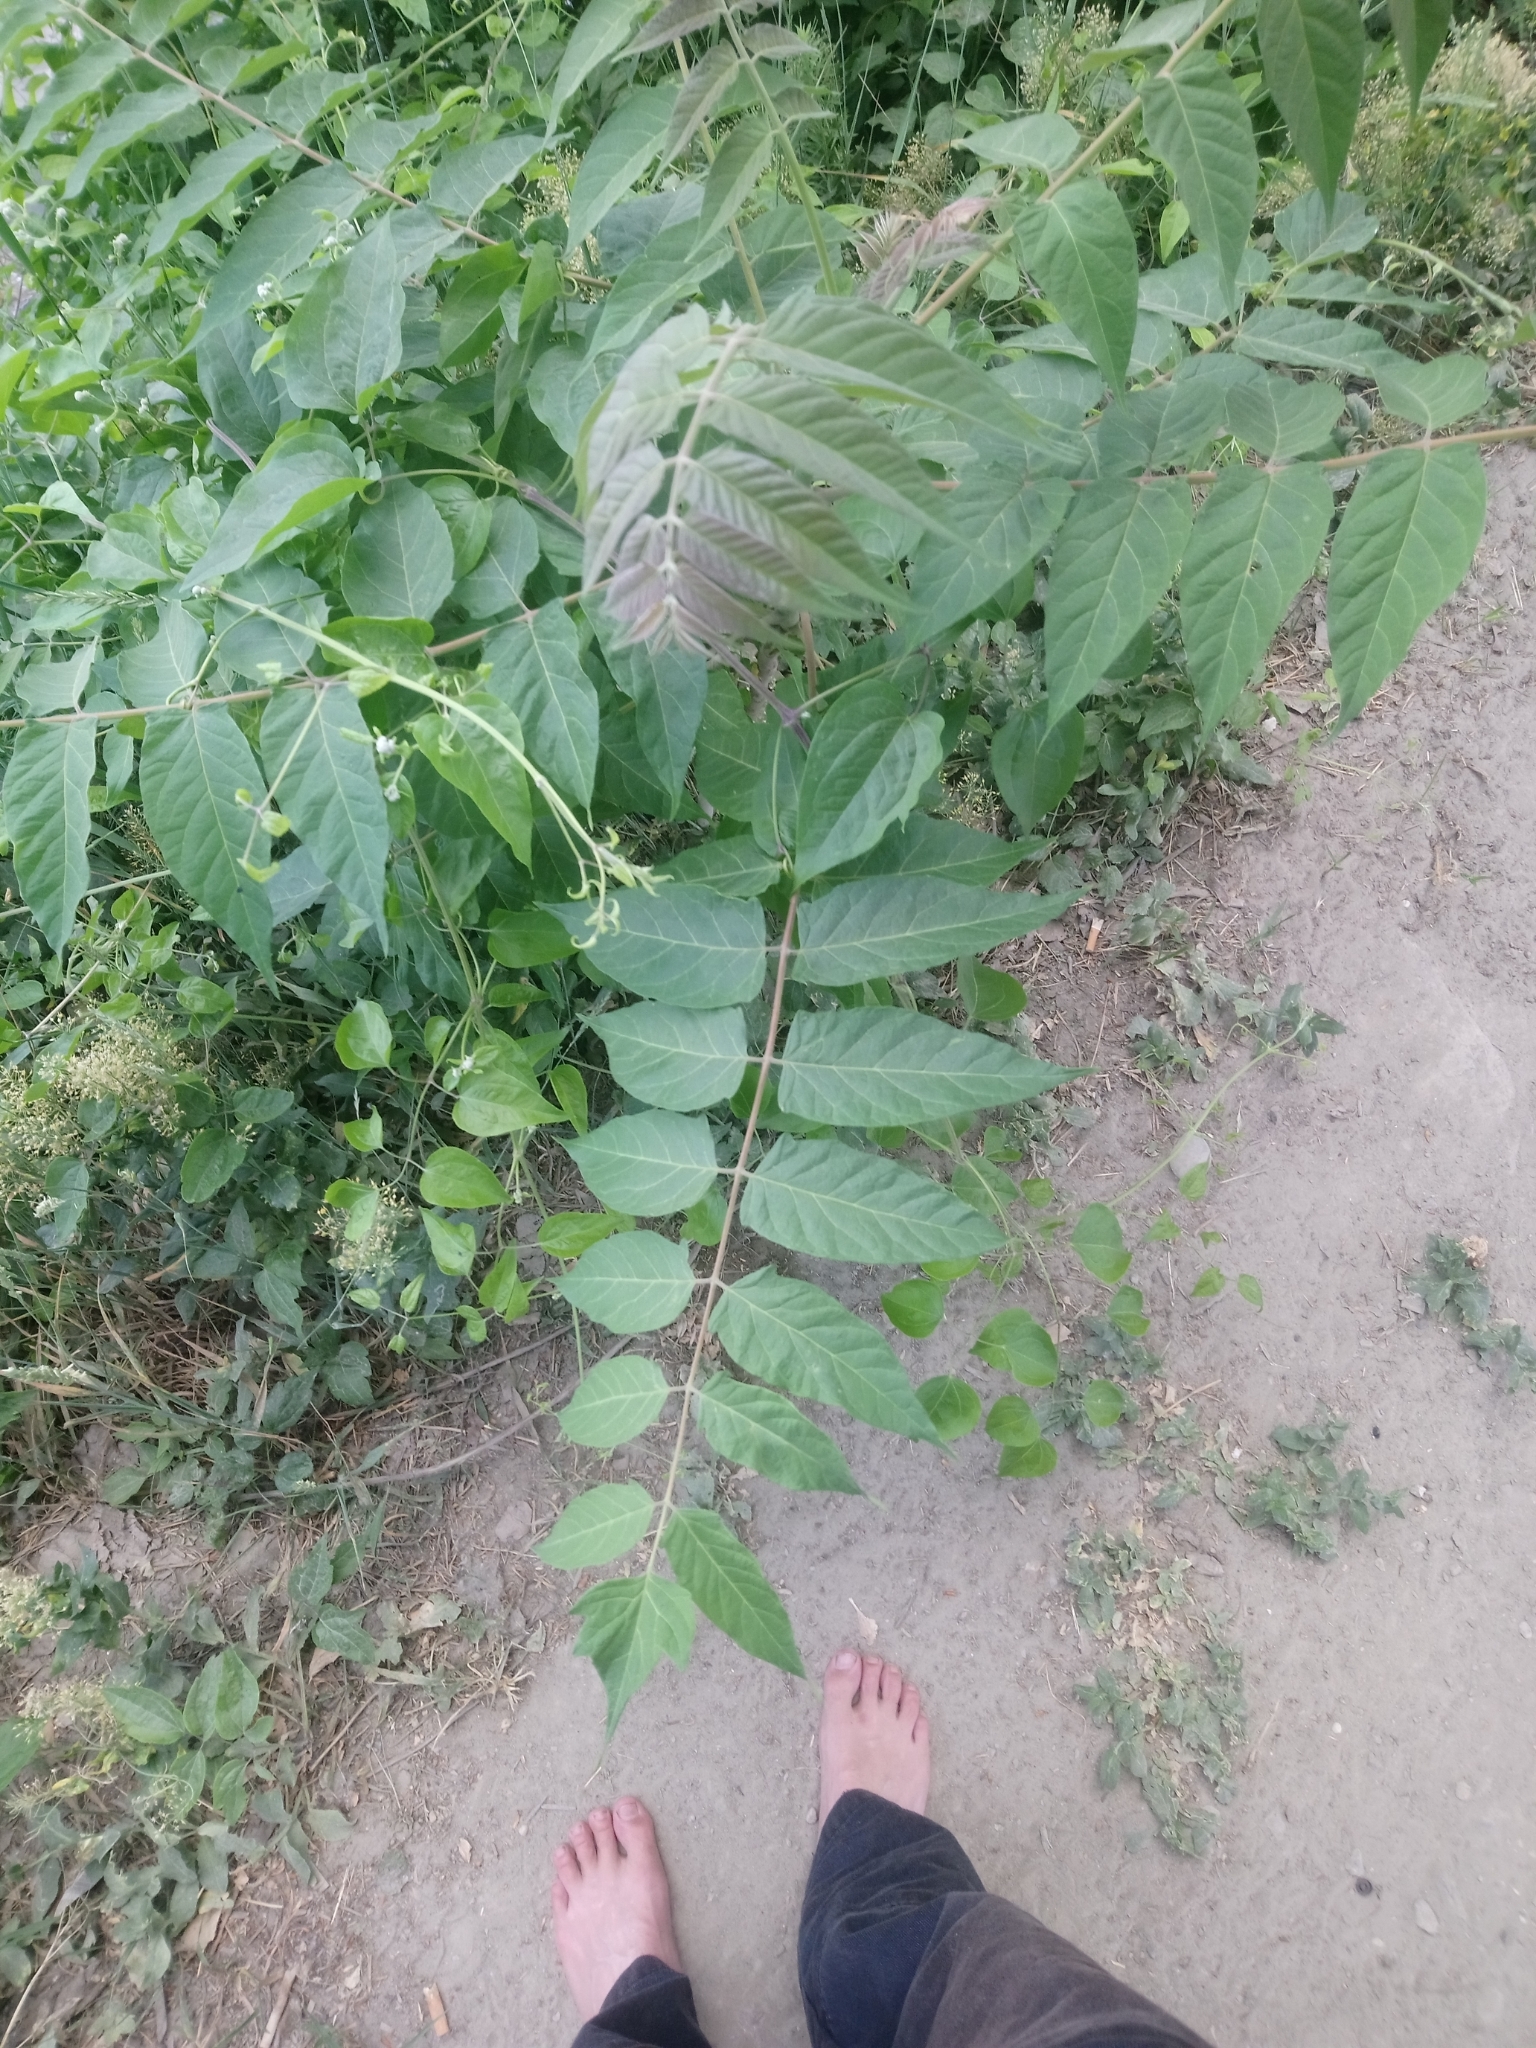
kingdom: Plantae
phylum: Tracheophyta
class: Magnoliopsida
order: Sapindales
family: Simaroubaceae
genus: Ailanthus
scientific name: Ailanthus altissima
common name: Tree-of-heaven
